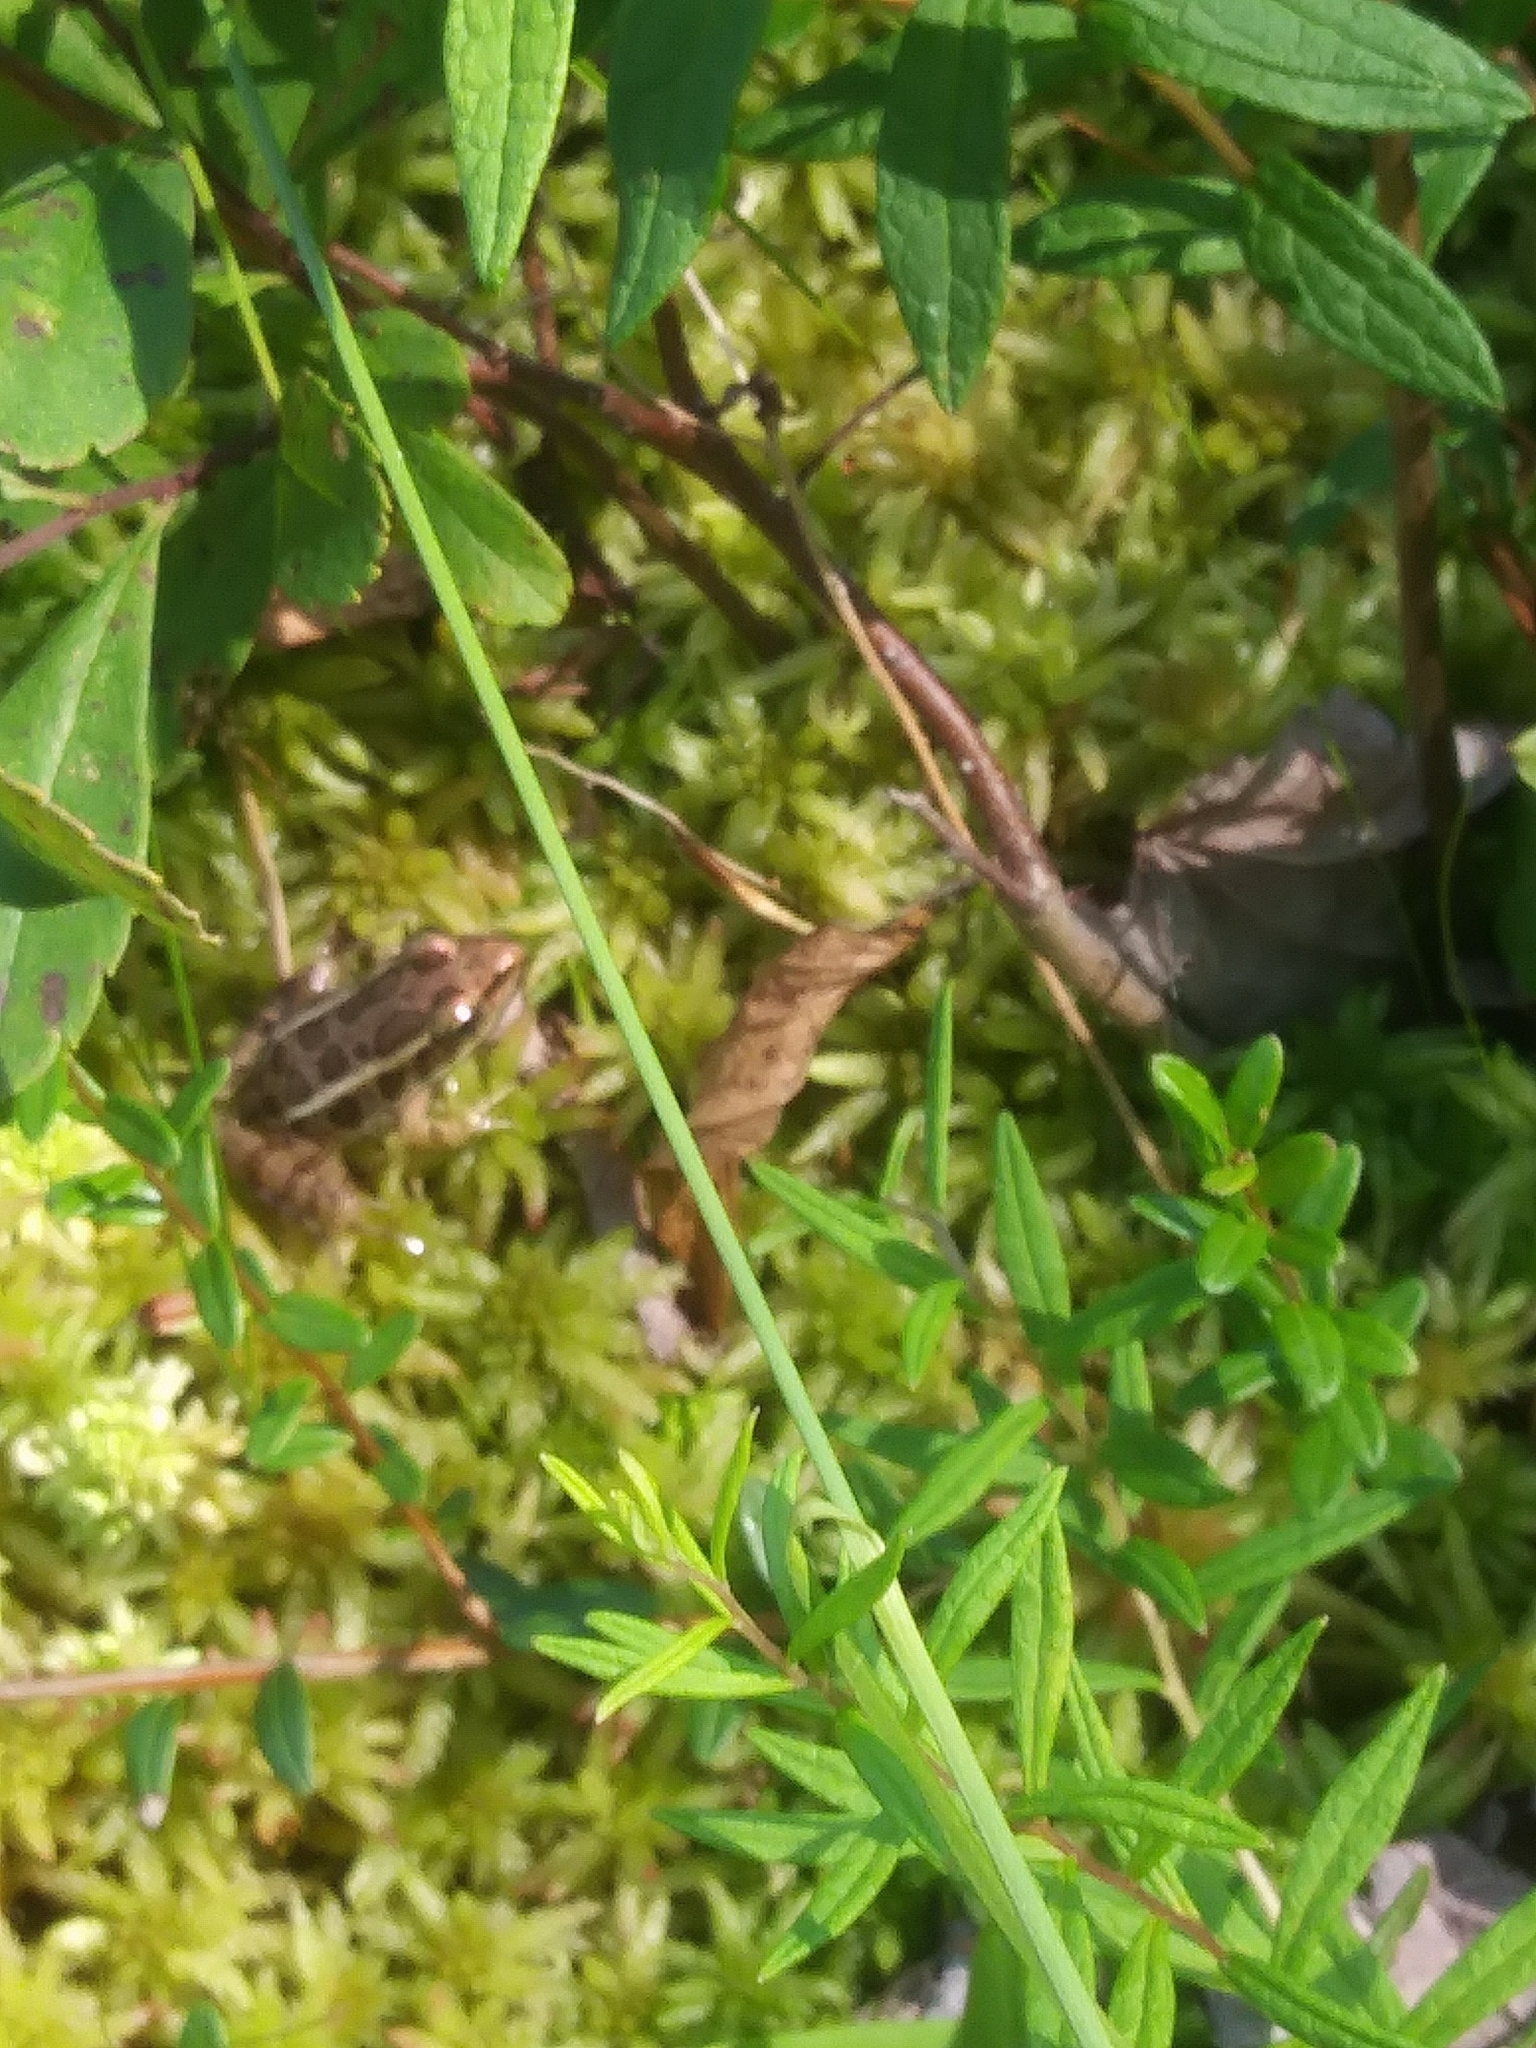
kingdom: Animalia
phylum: Chordata
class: Amphibia
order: Anura
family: Ranidae
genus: Lithobates
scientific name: Lithobates palustris
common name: Pickerel frog
